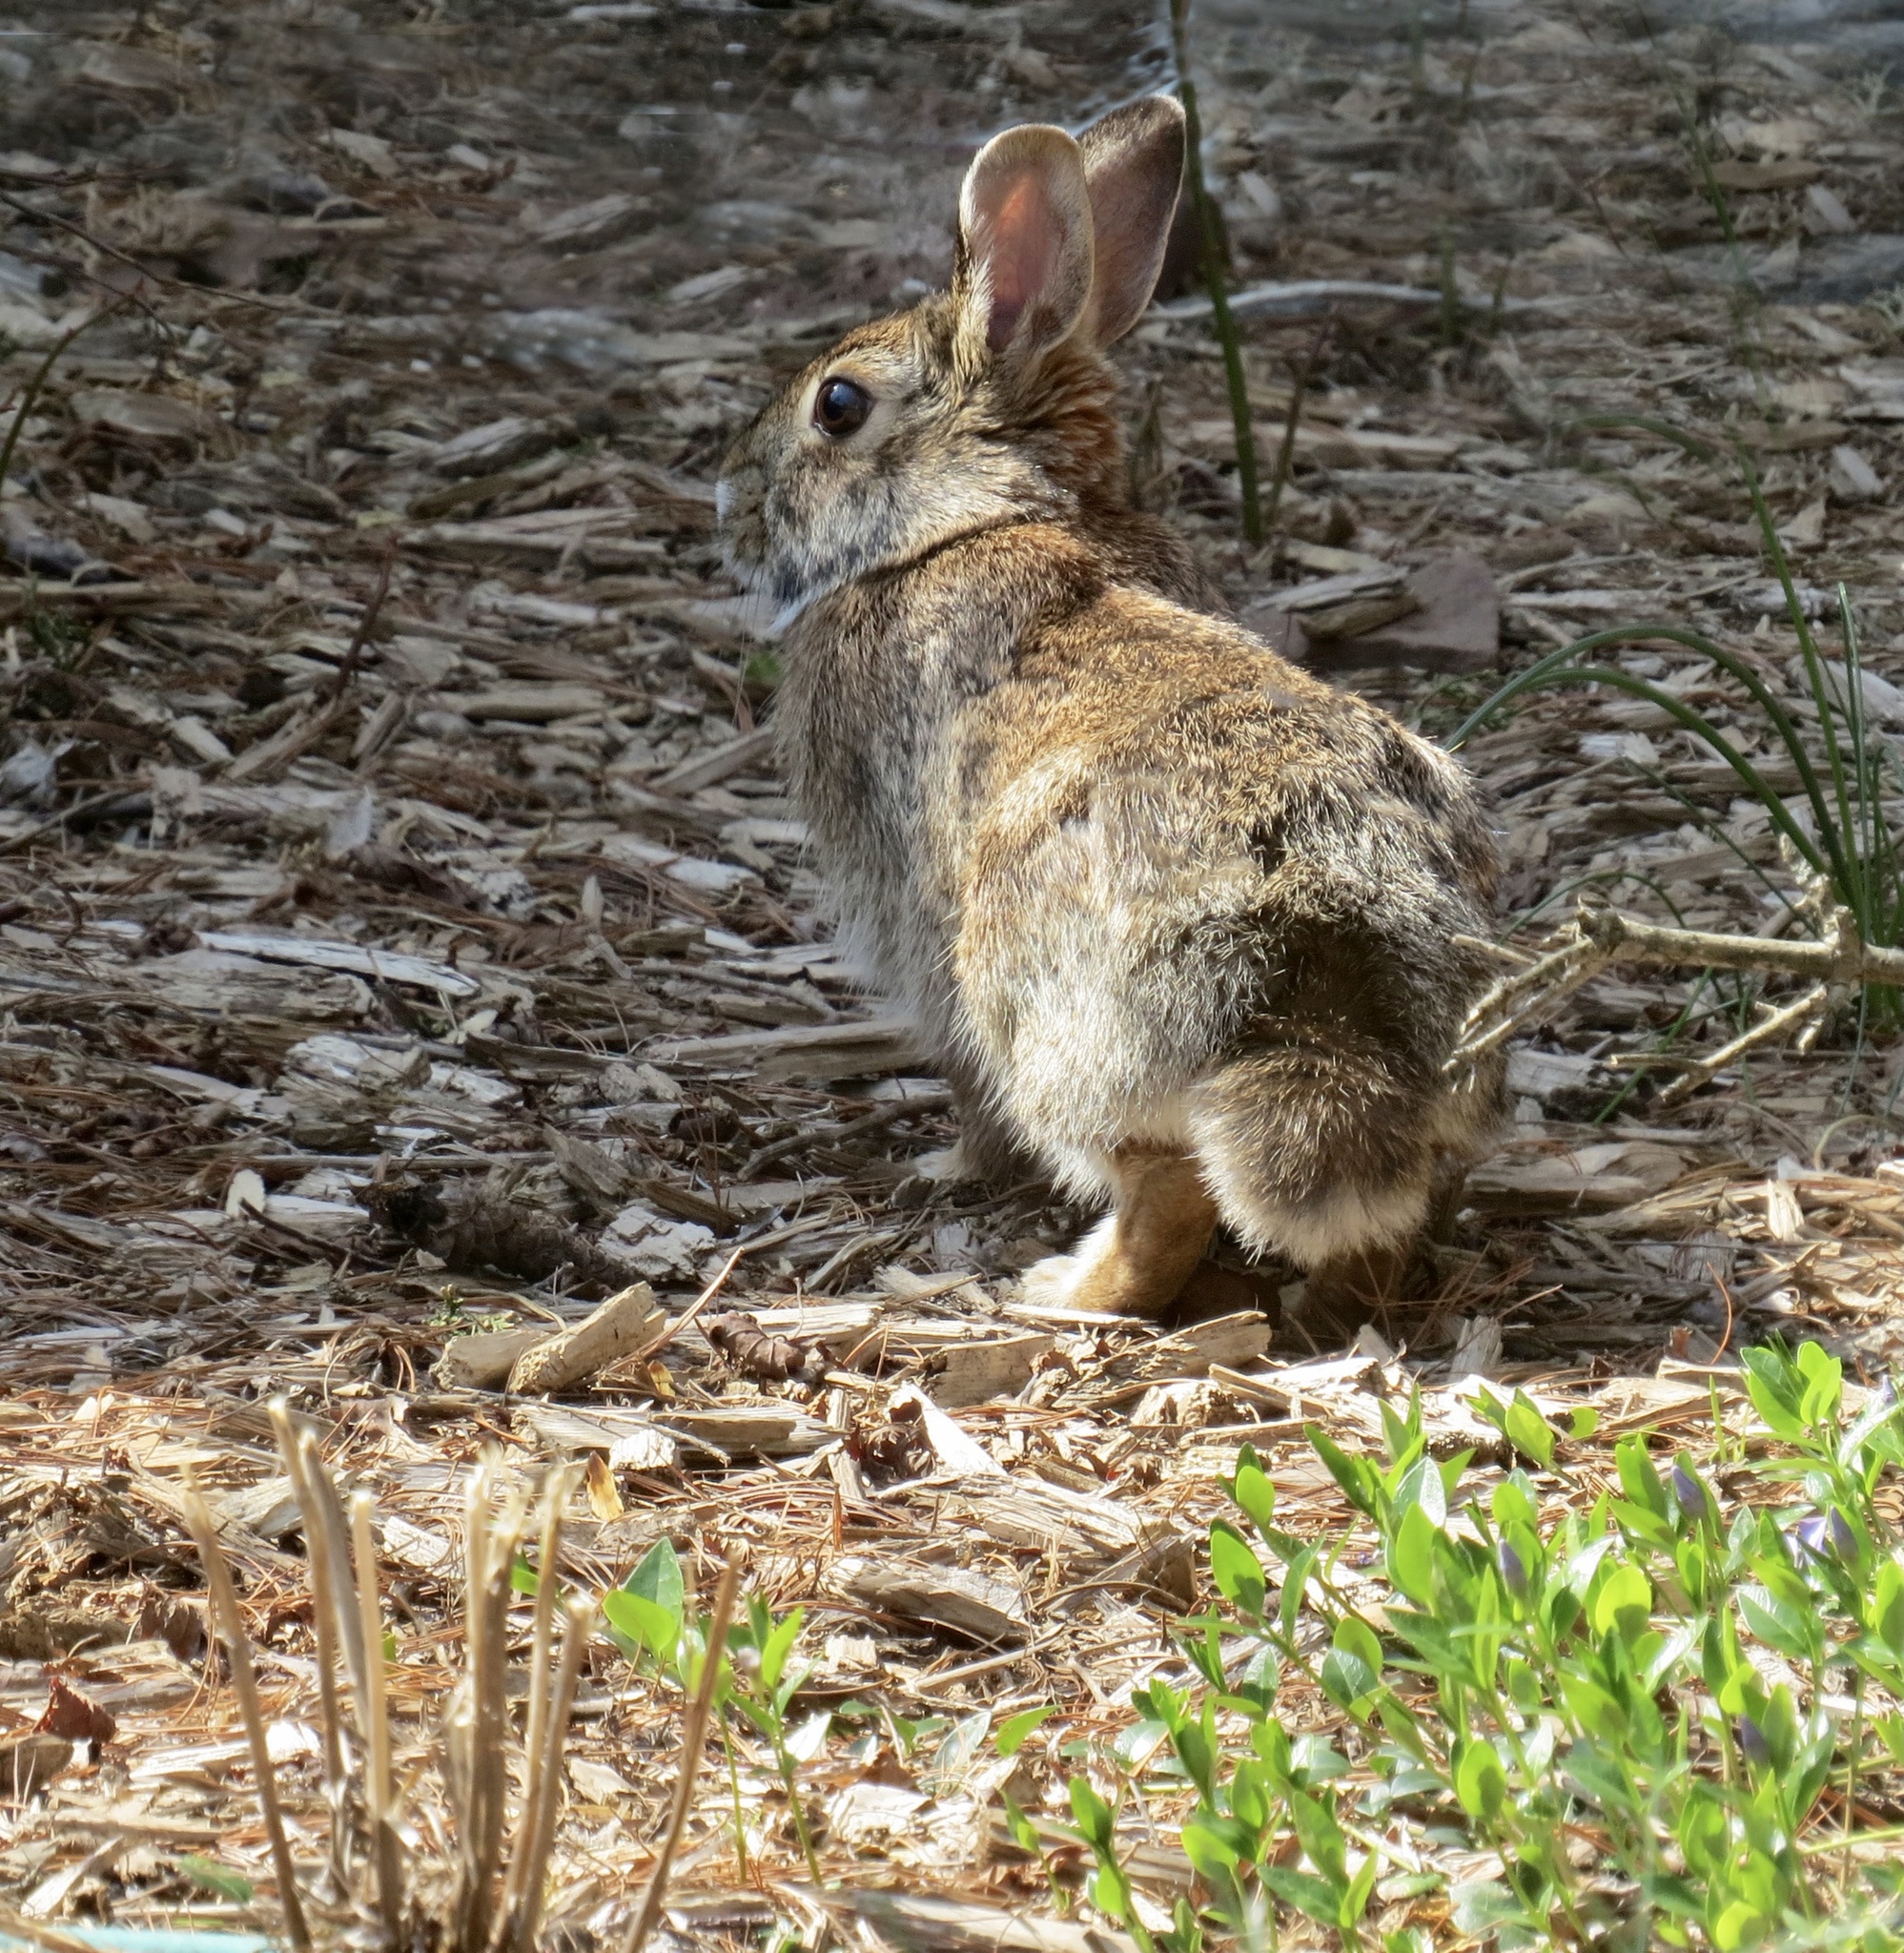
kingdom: Animalia
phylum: Chordata
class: Mammalia
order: Lagomorpha
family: Leporidae
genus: Sylvilagus
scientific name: Sylvilagus floridanus
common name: Eastern cottontail
